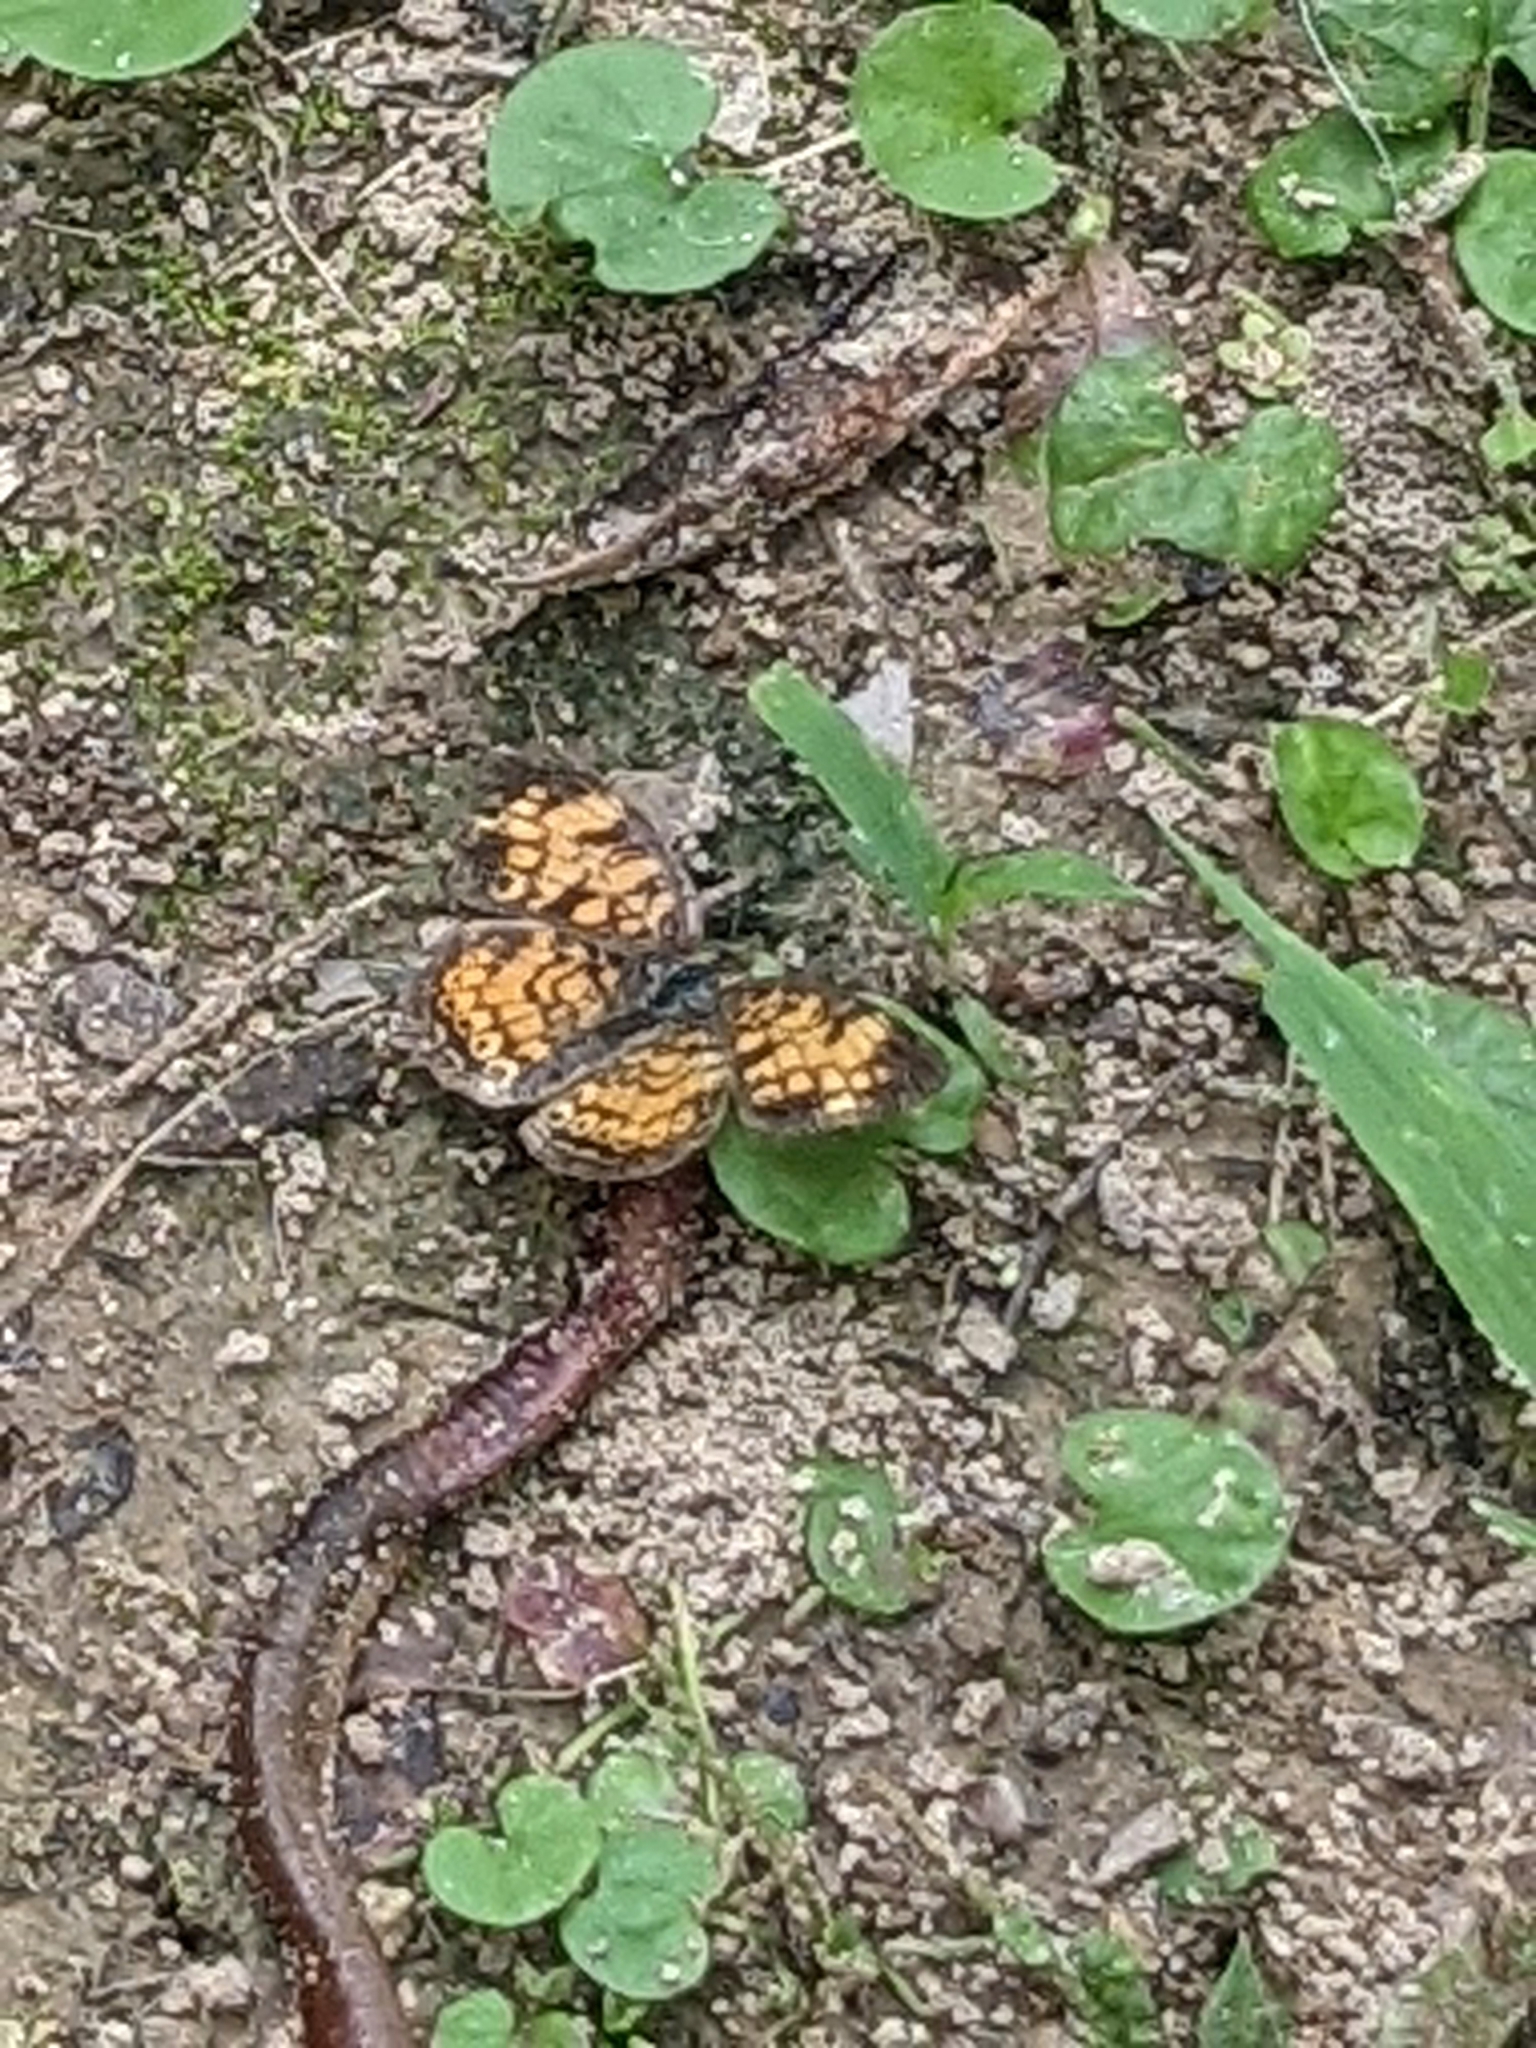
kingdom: Animalia
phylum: Arthropoda
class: Insecta
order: Lepidoptera
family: Nymphalidae
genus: Phyciodes
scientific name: Phyciodes tharos
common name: Pearl crescent
